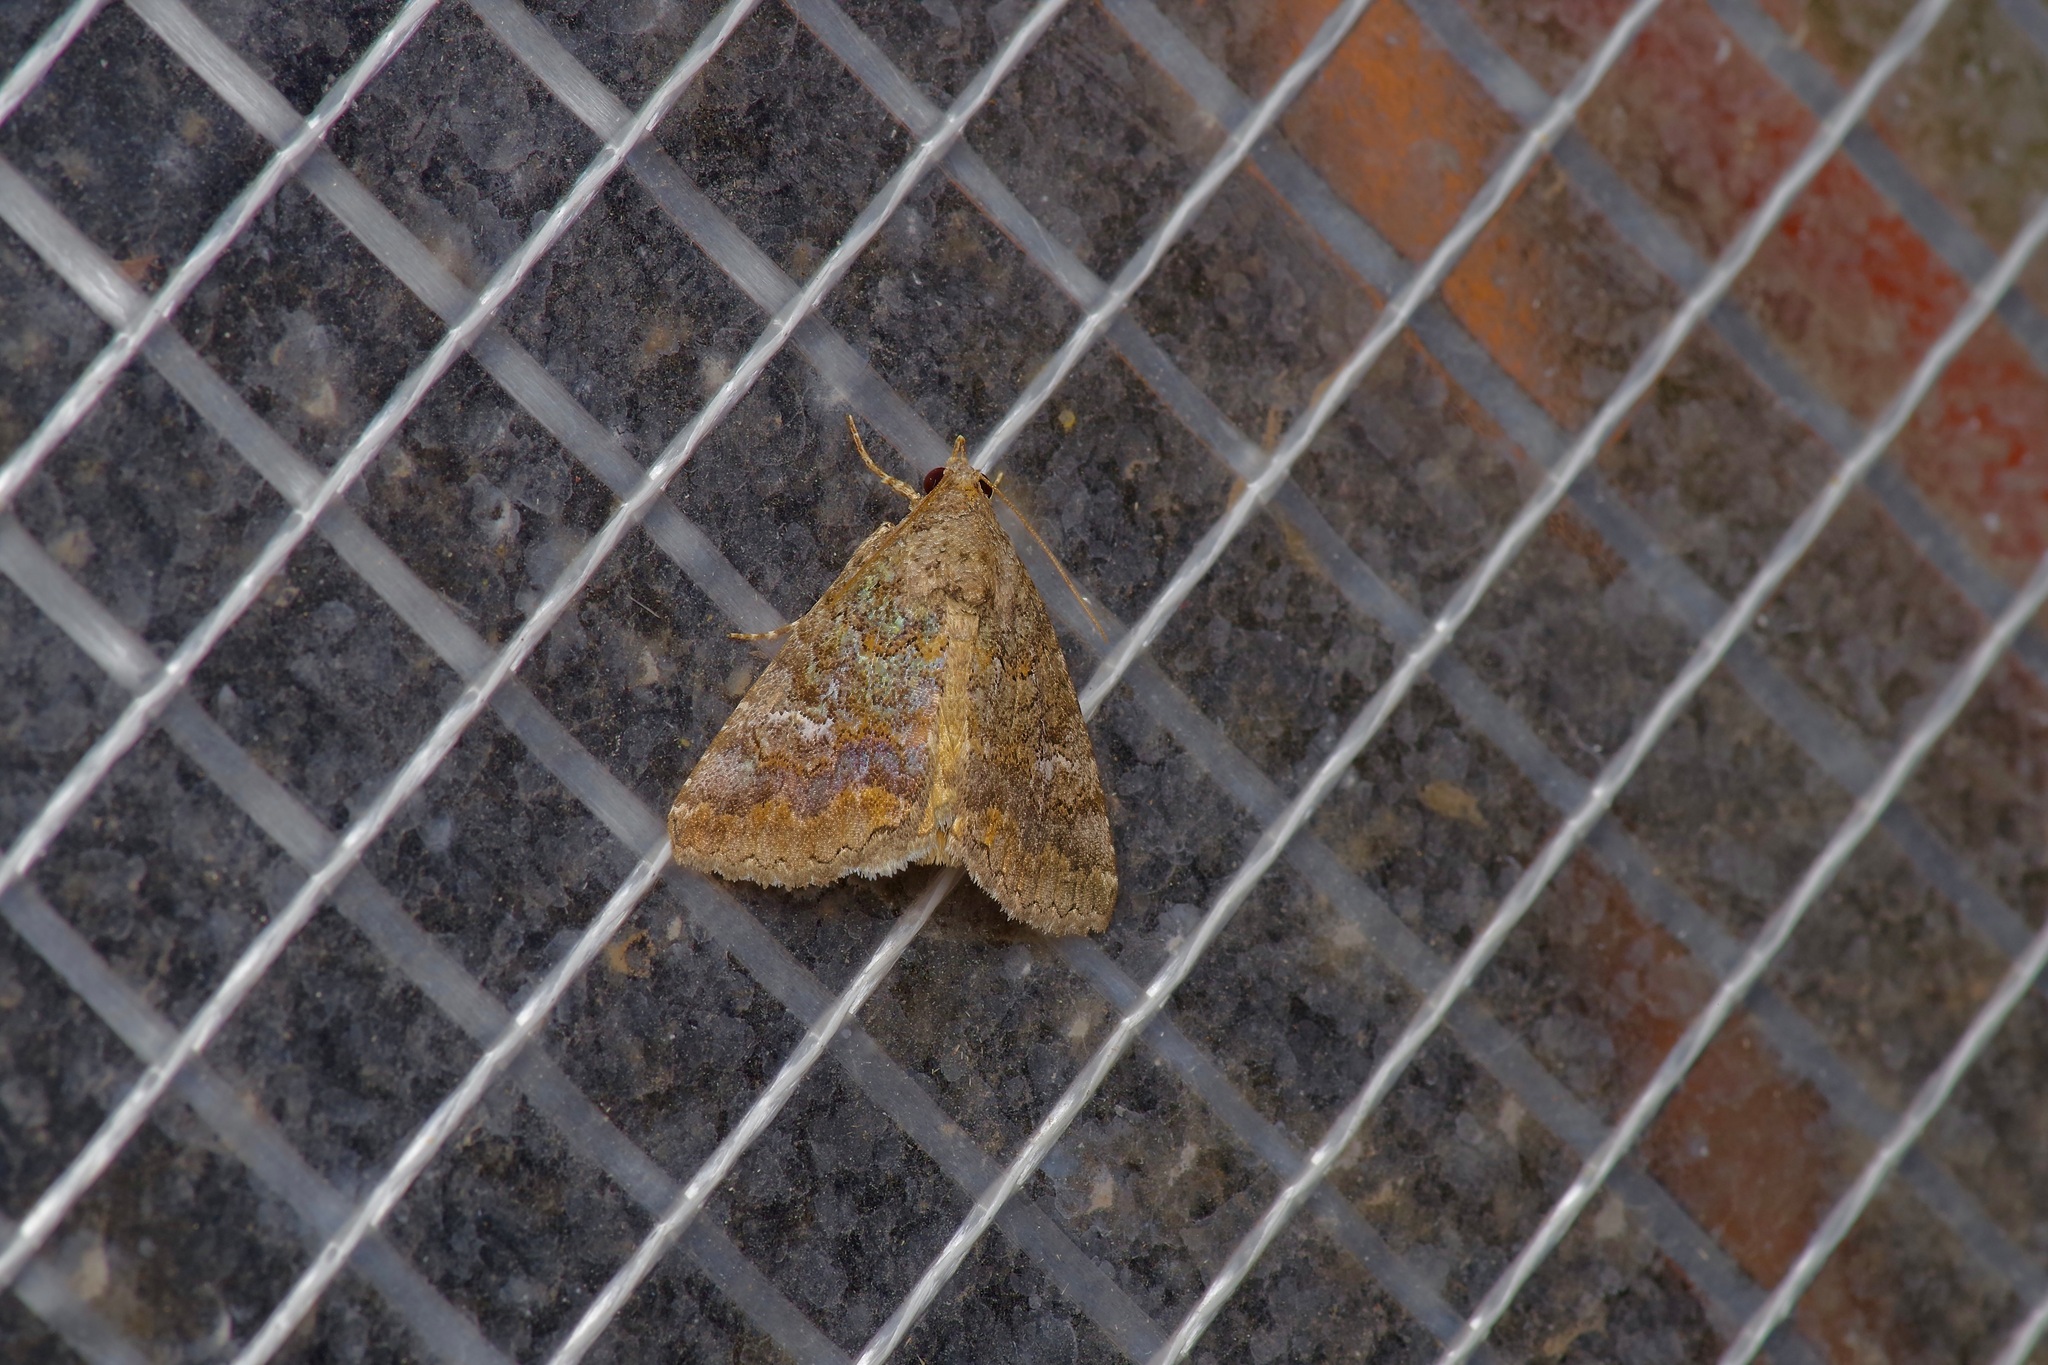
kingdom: Animalia
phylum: Arthropoda
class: Insecta
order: Lepidoptera
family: Erebidae
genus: Eubolina
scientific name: Eubolina impartialis
